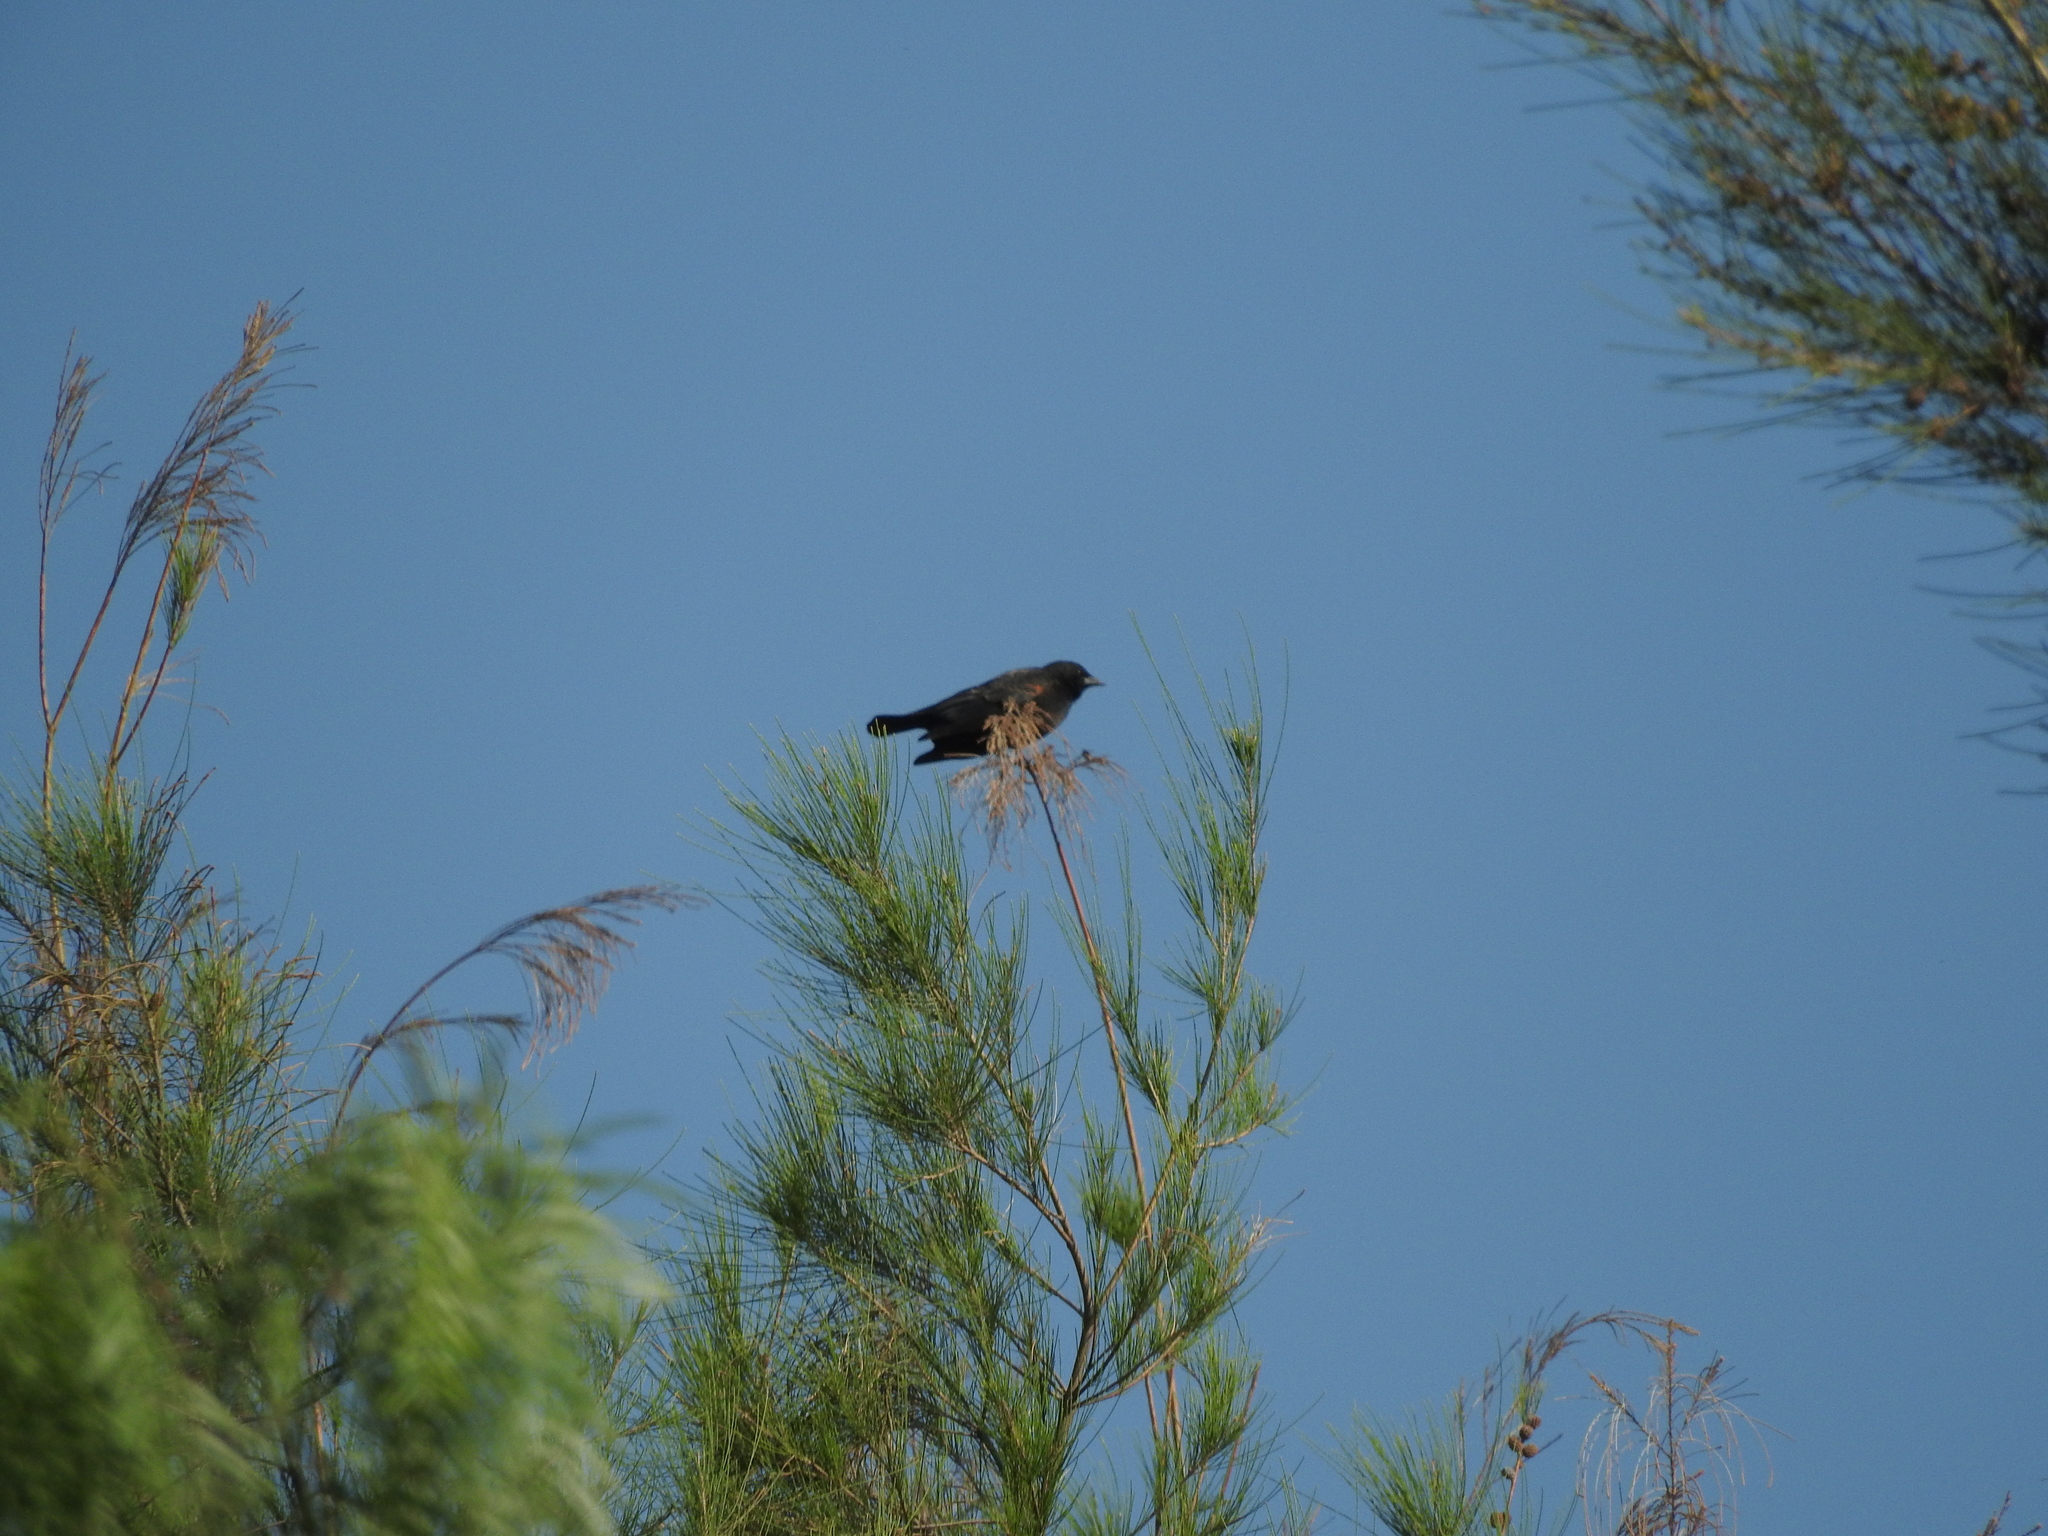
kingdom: Animalia
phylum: Chordata
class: Aves
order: Passeriformes
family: Icteridae
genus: Agelaius
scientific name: Agelaius phoeniceus
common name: Red-winged blackbird
